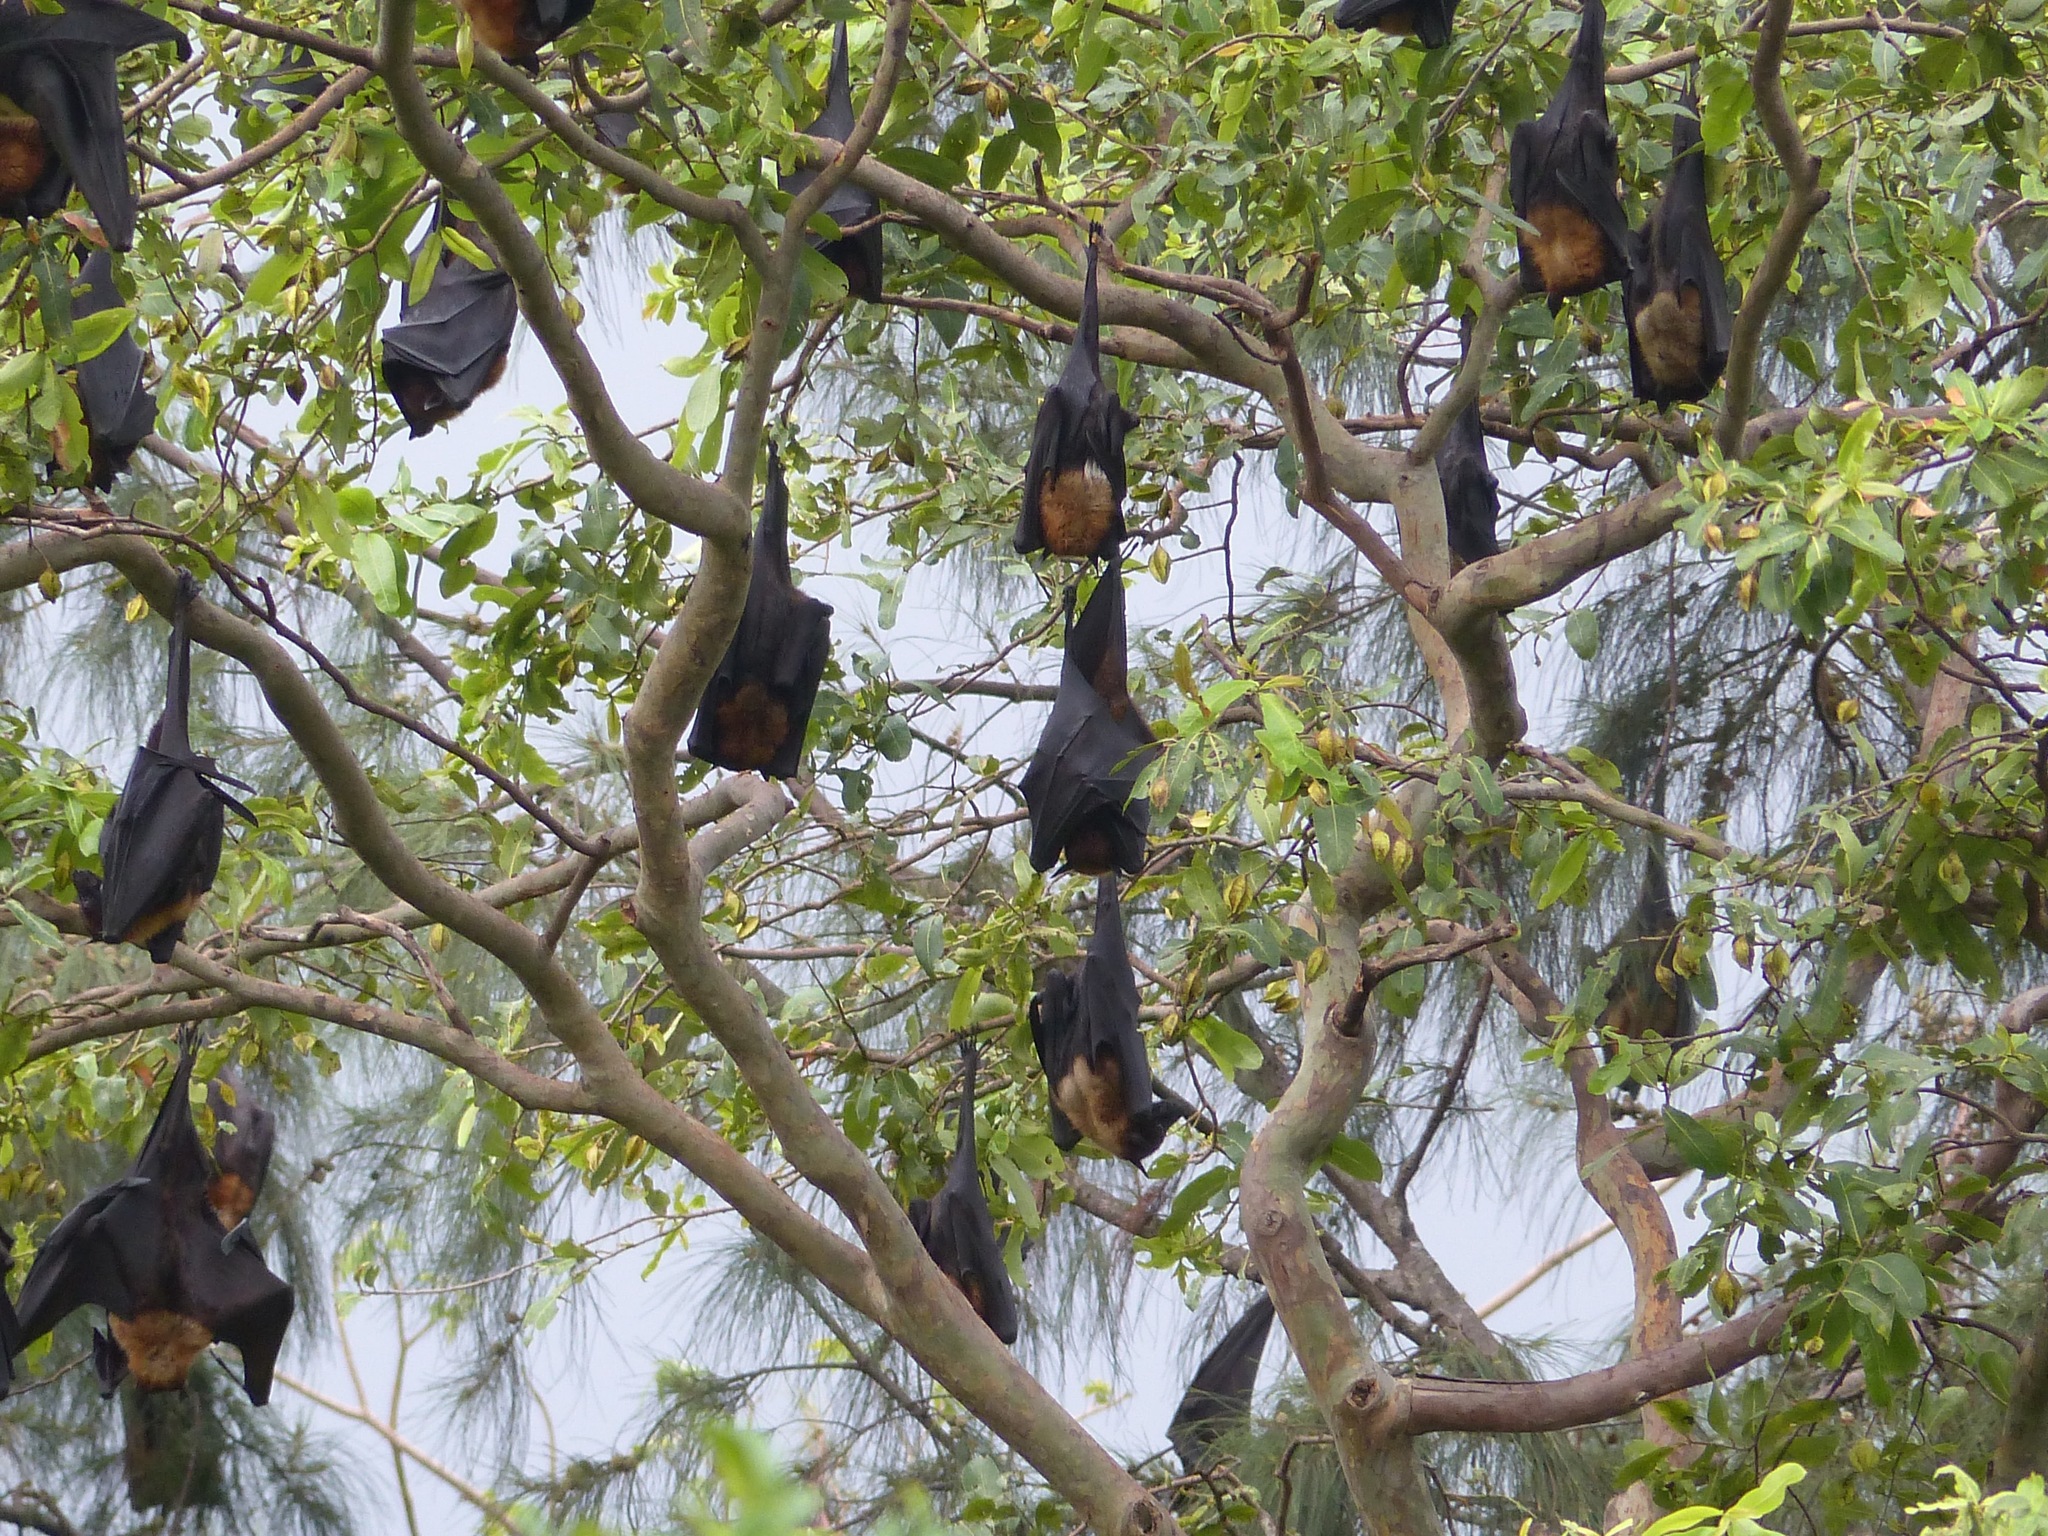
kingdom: Animalia
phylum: Chordata
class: Mammalia
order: Chiroptera
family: Pteropodidae
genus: Pteropus
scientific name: Pteropus vampyrus
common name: Large flying fox
